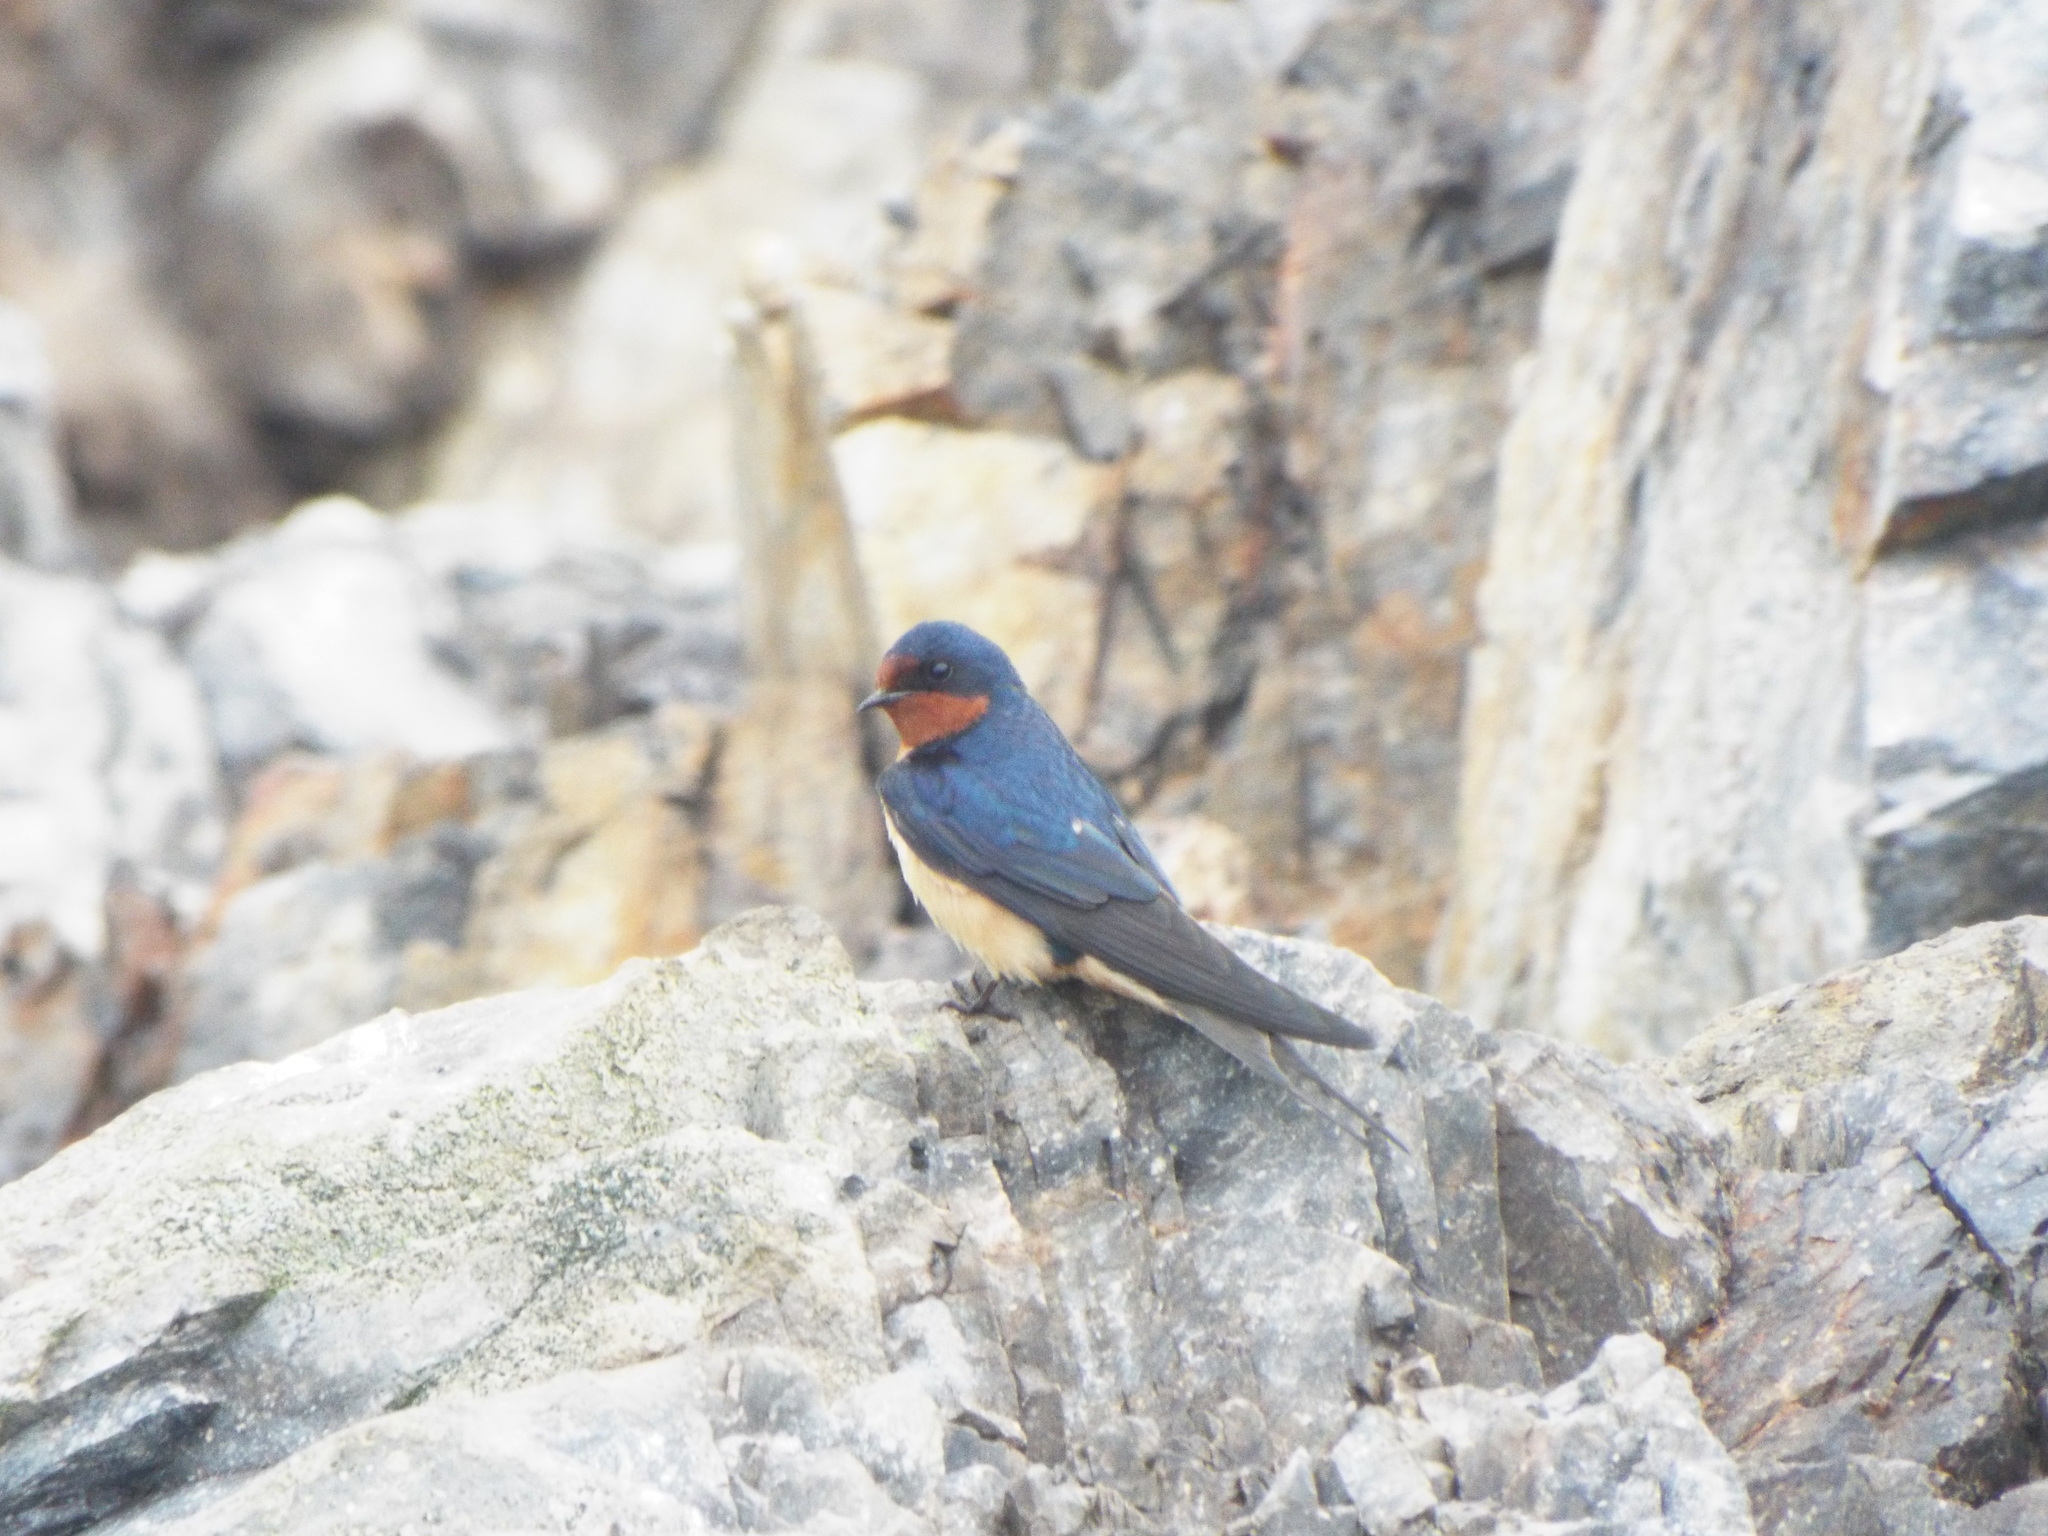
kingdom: Animalia
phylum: Chordata
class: Aves
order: Passeriformes
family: Hirundinidae
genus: Hirundo
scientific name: Hirundo rustica
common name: Barn swallow
